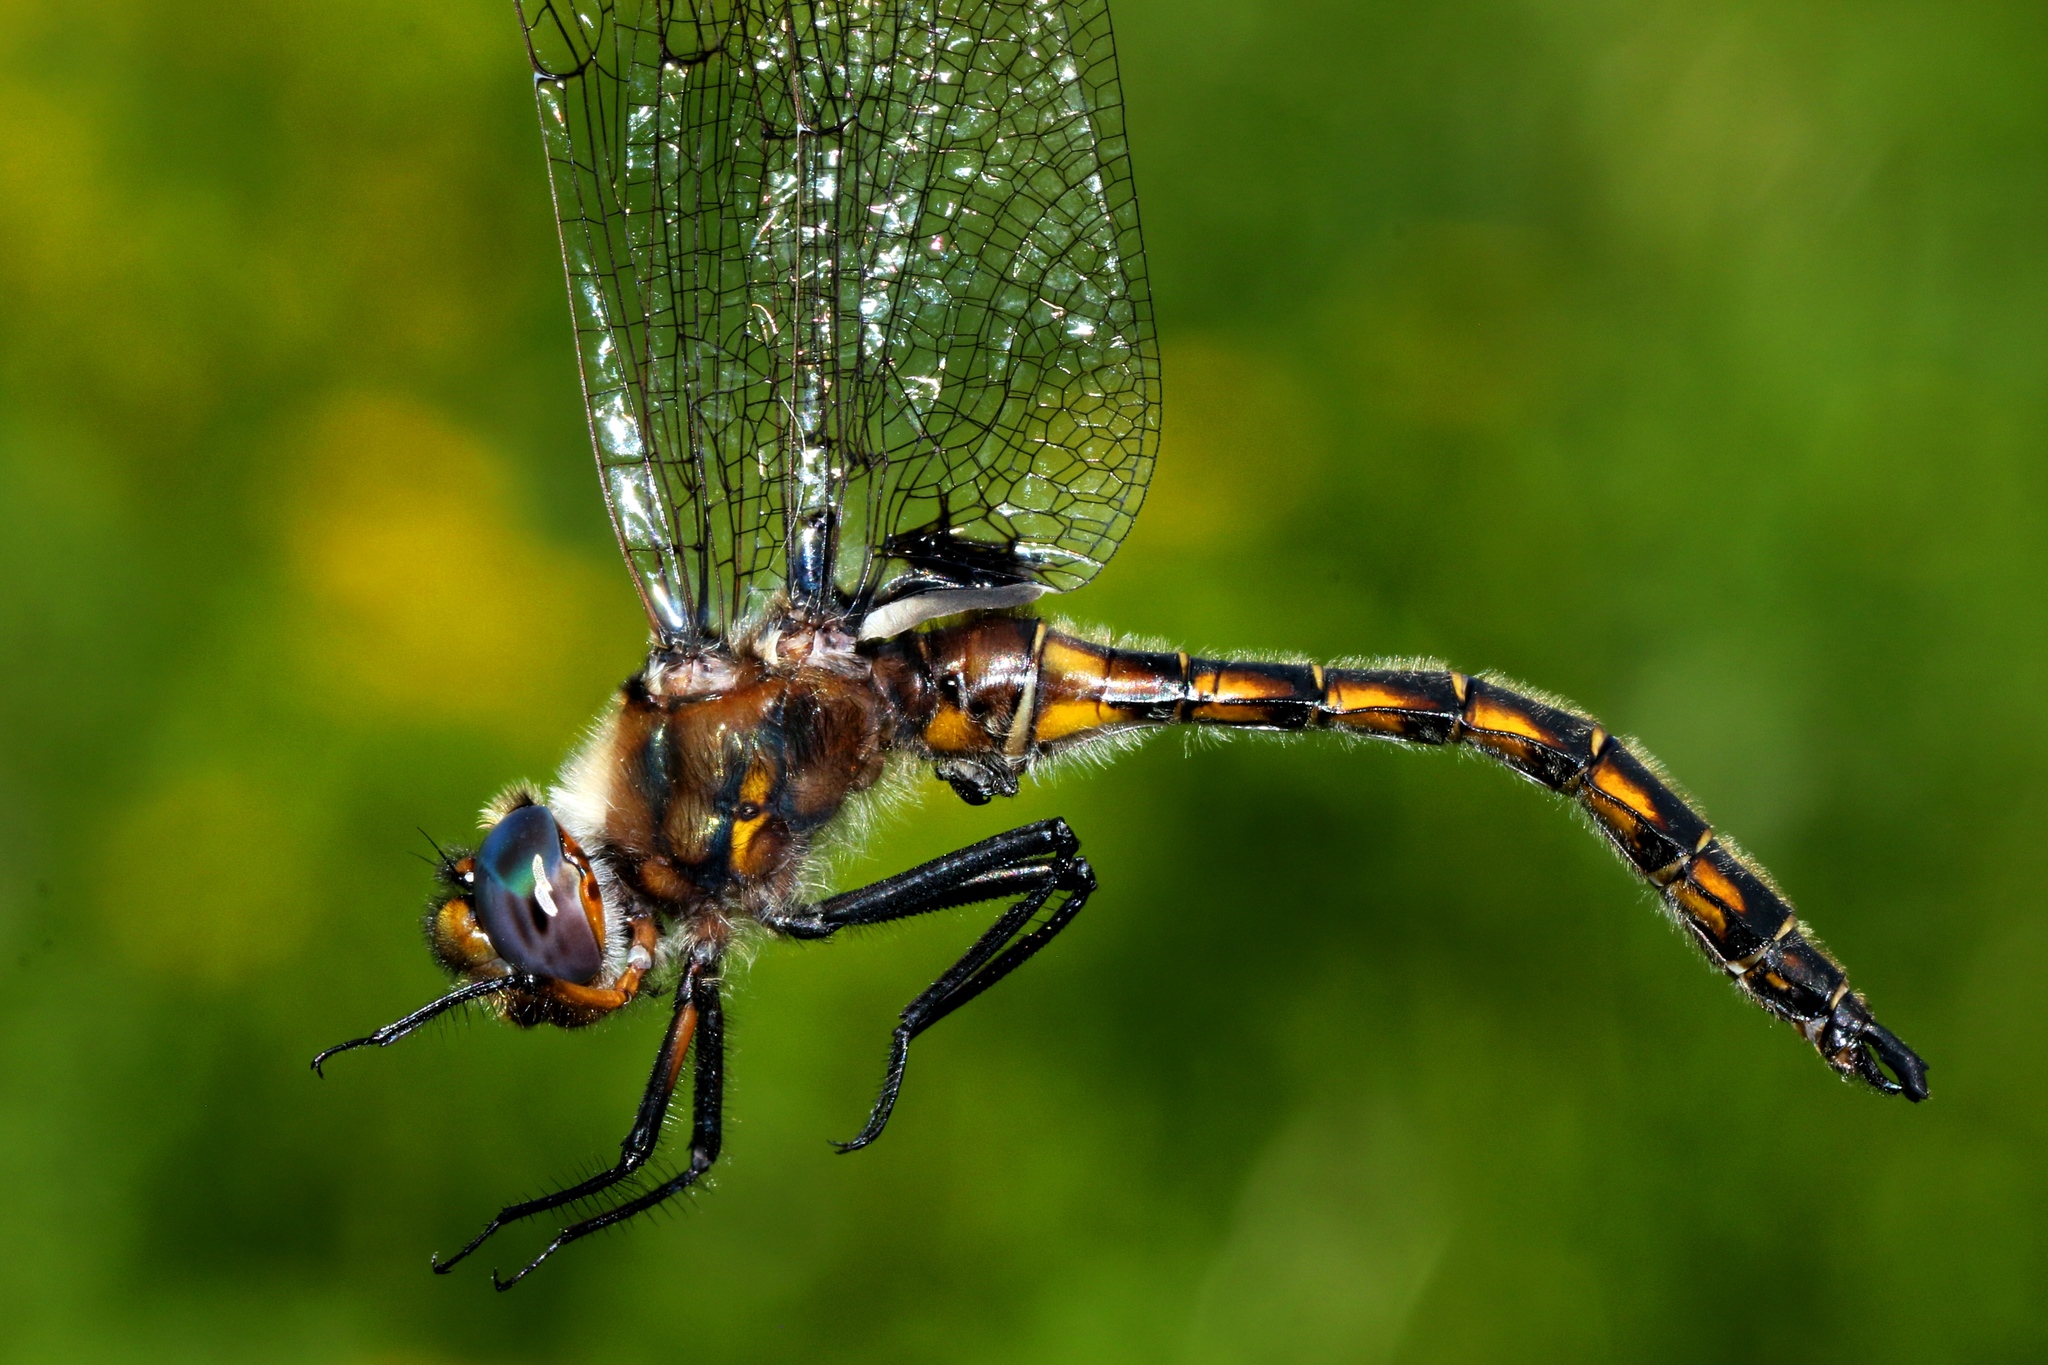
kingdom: Animalia
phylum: Arthropoda
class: Insecta
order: Odonata
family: Corduliidae
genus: Epitheca
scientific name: Epitheca canis
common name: Beaverpond baskettail
